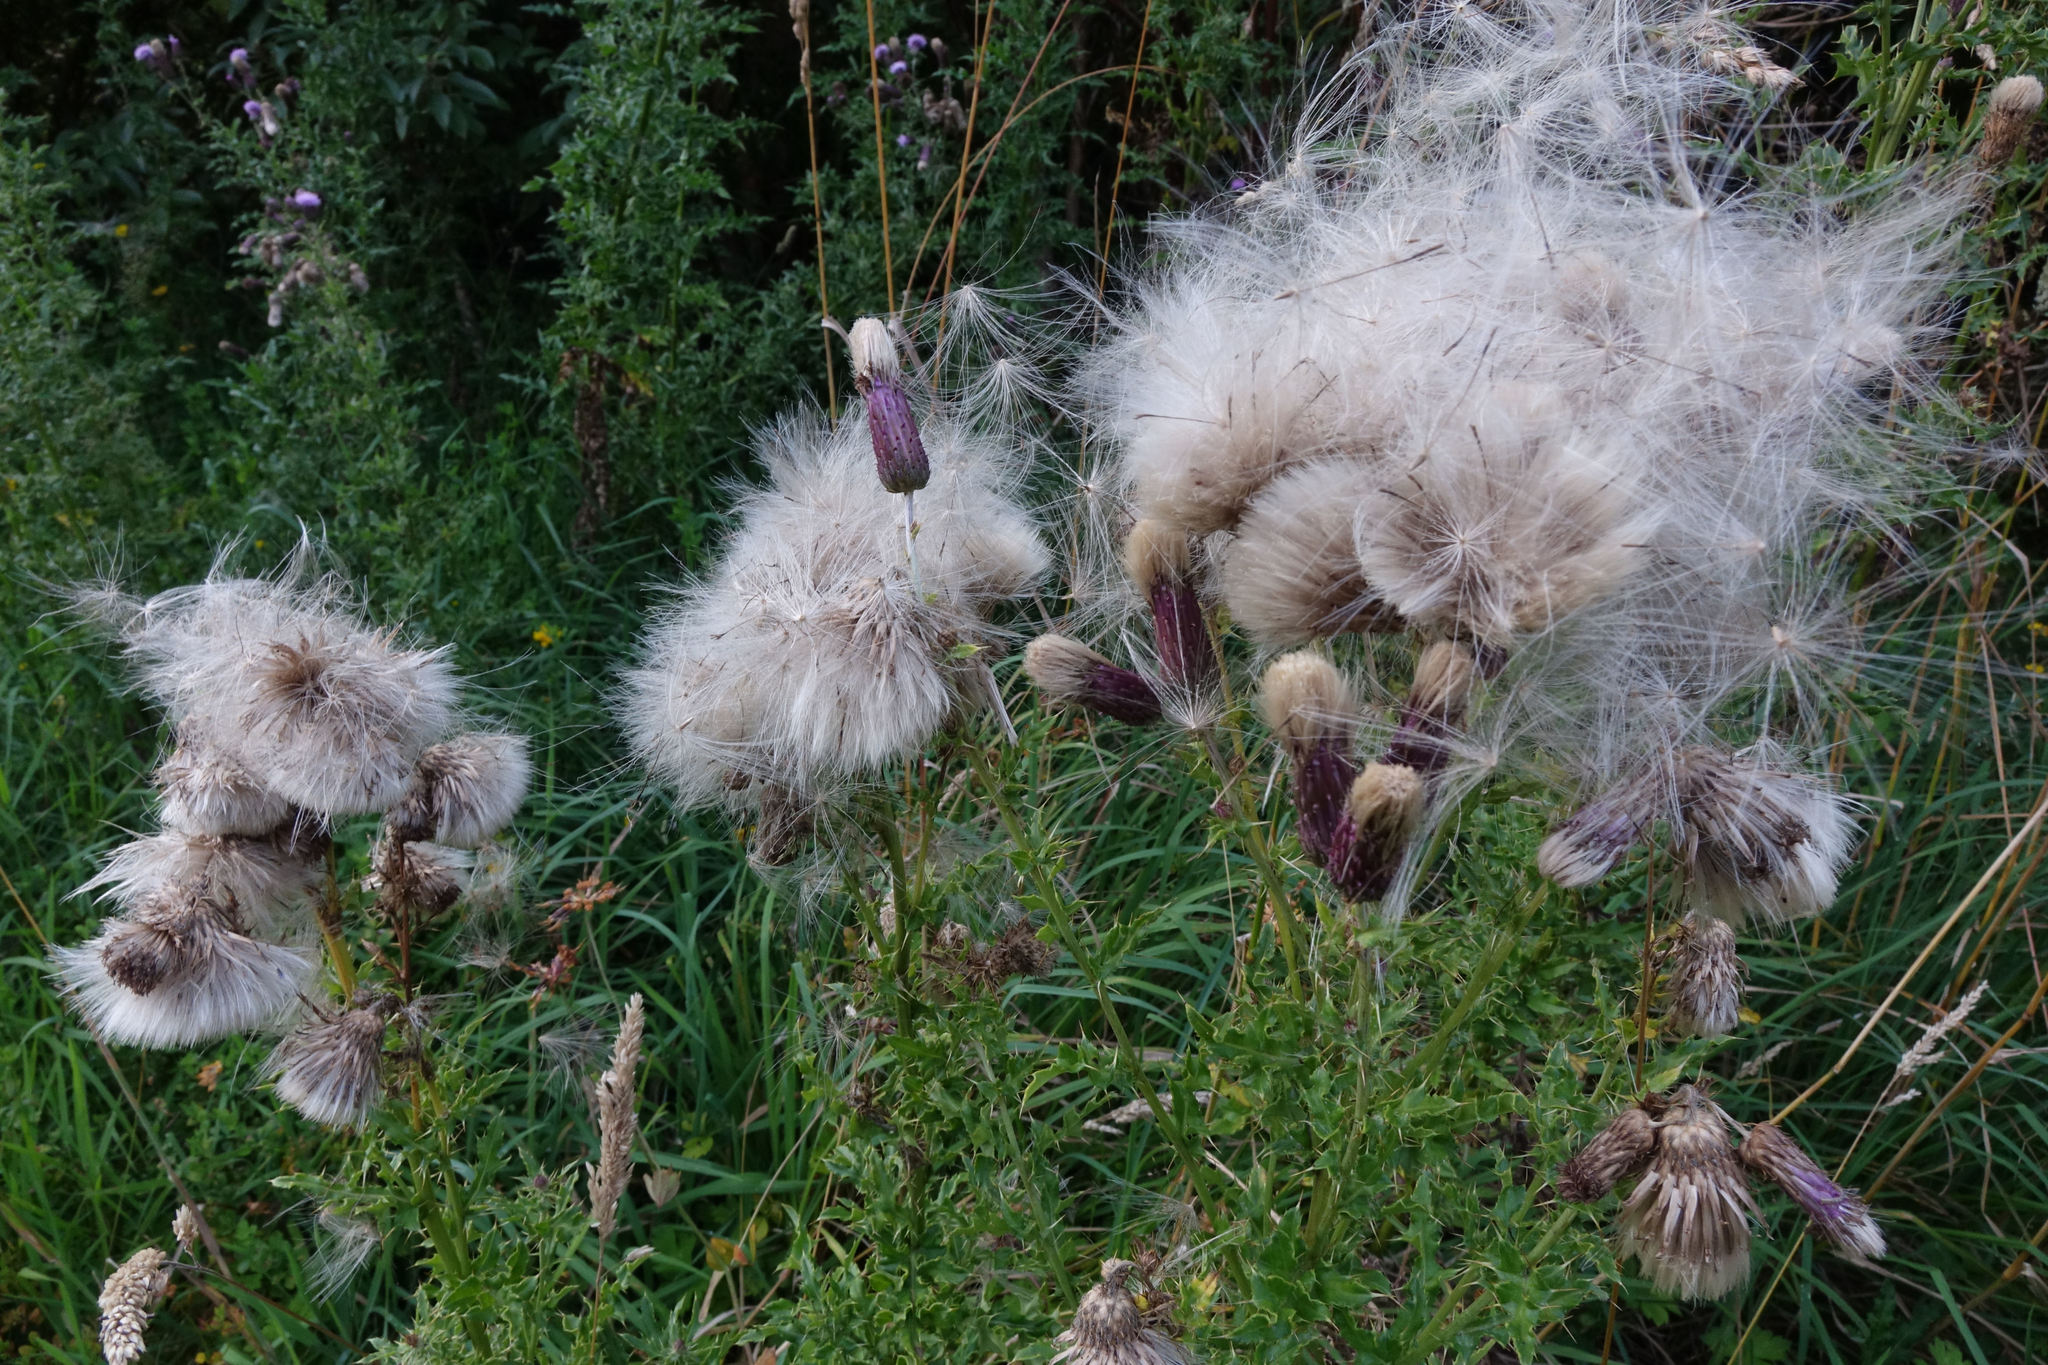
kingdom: Plantae
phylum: Tracheophyta
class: Magnoliopsida
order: Asterales
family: Asteraceae
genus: Cirsium
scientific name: Cirsium arvense
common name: Creeping thistle
